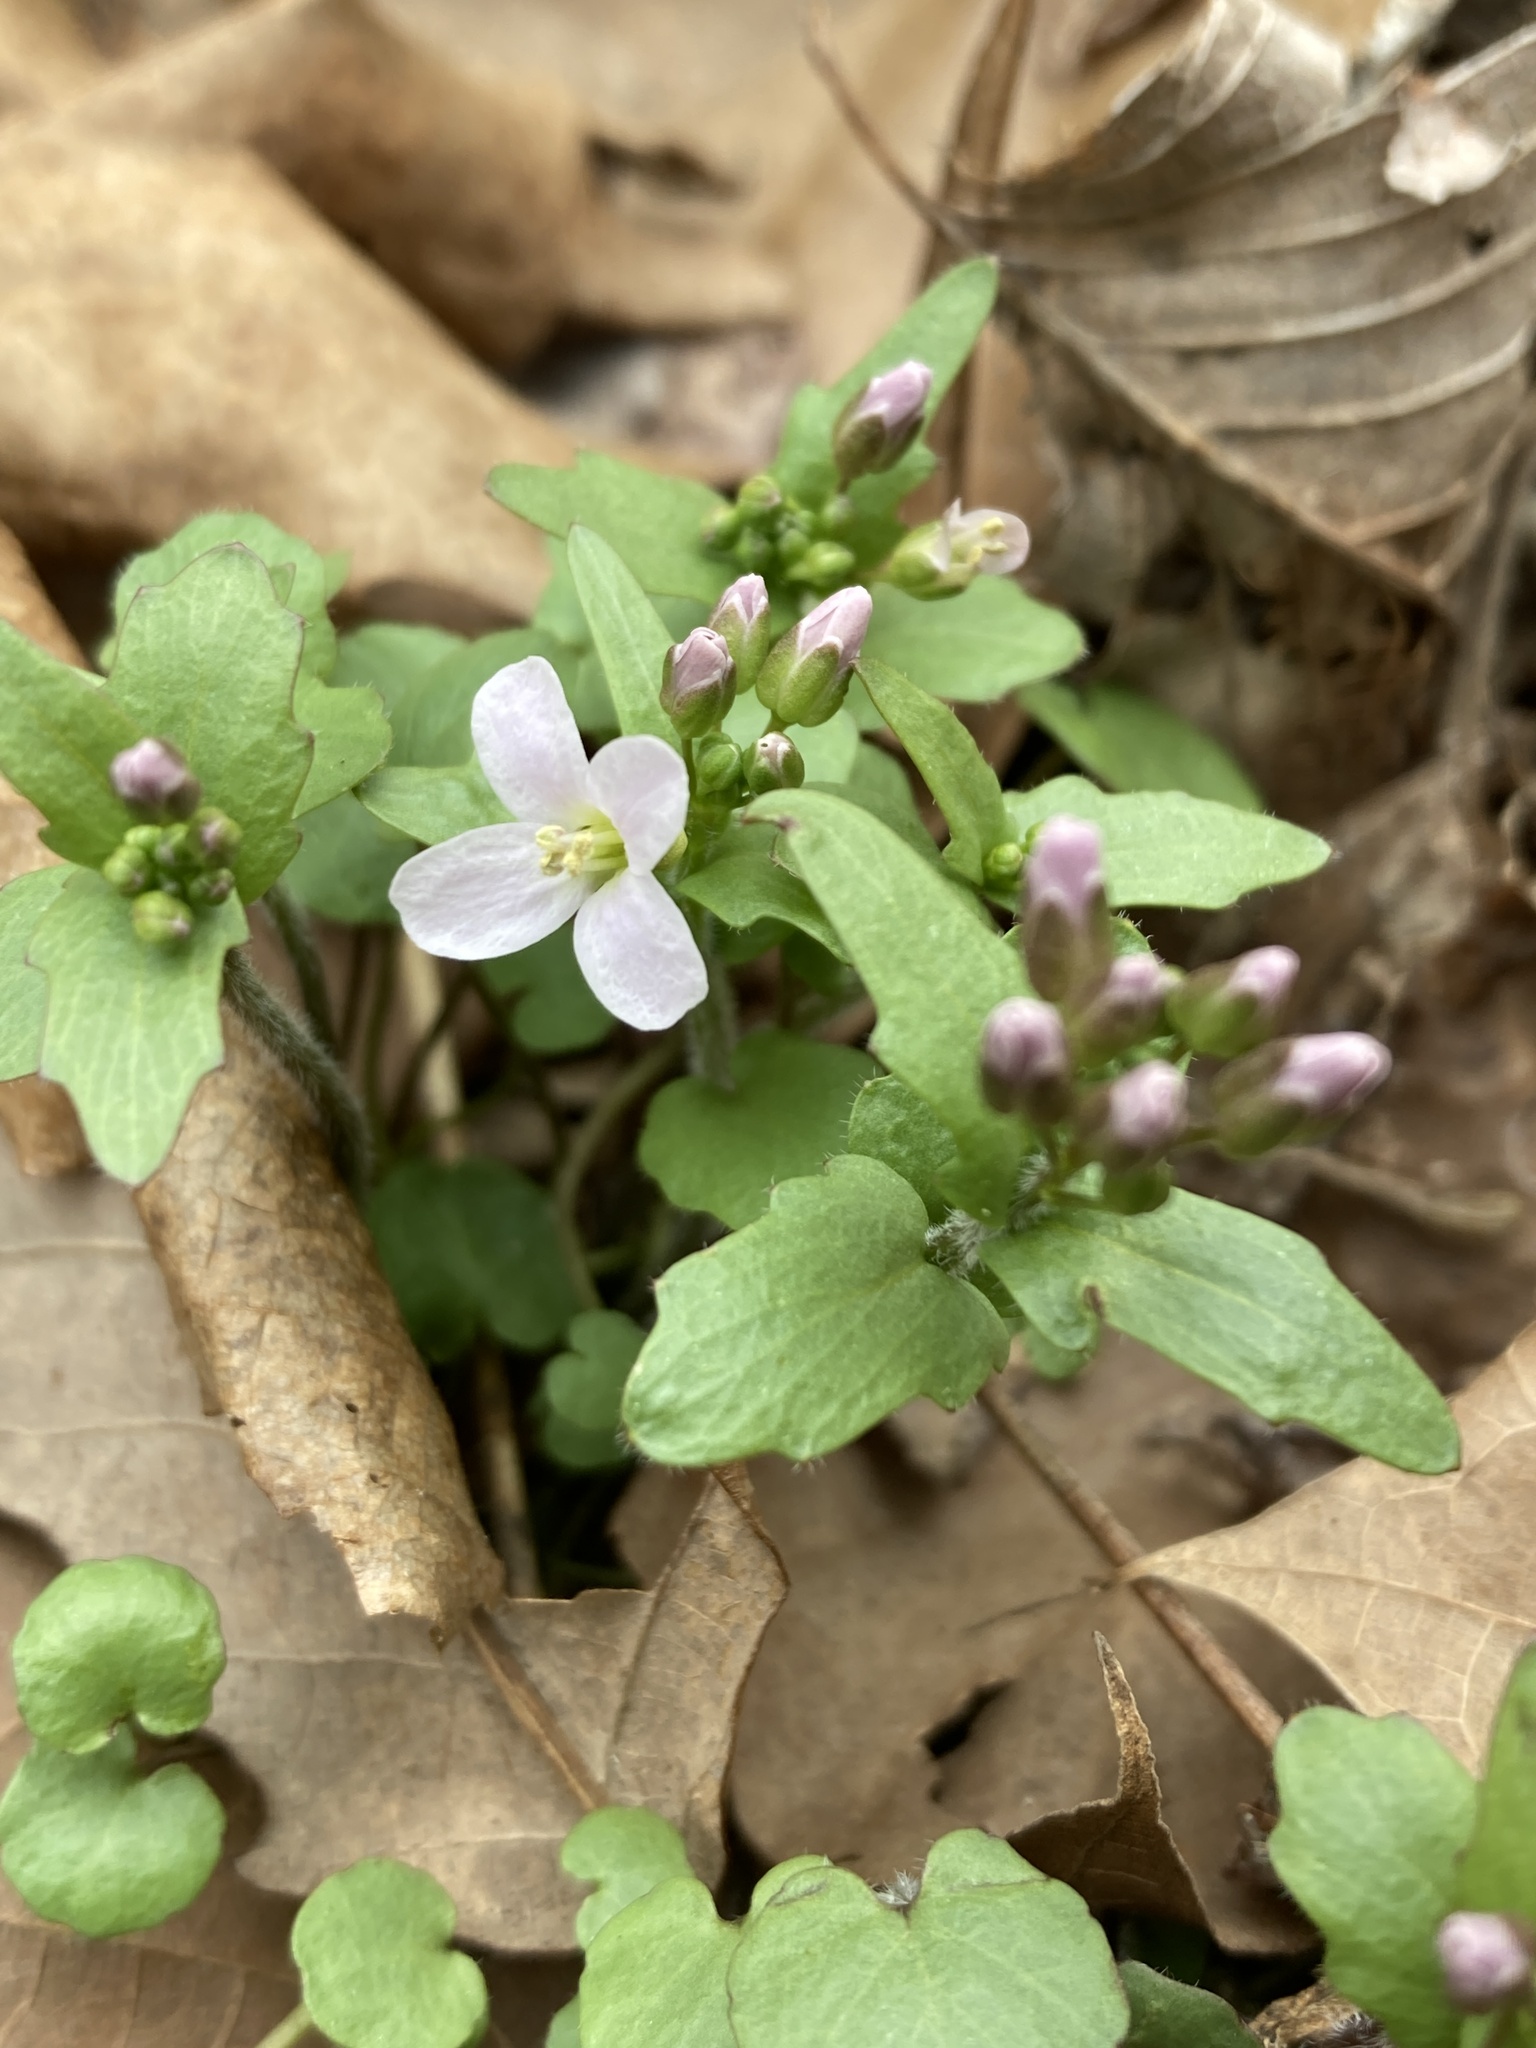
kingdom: Plantae
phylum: Tracheophyta
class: Magnoliopsida
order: Brassicales
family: Brassicaceae
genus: Cardamine
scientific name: Cardamine douglassii
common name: Purple cress
